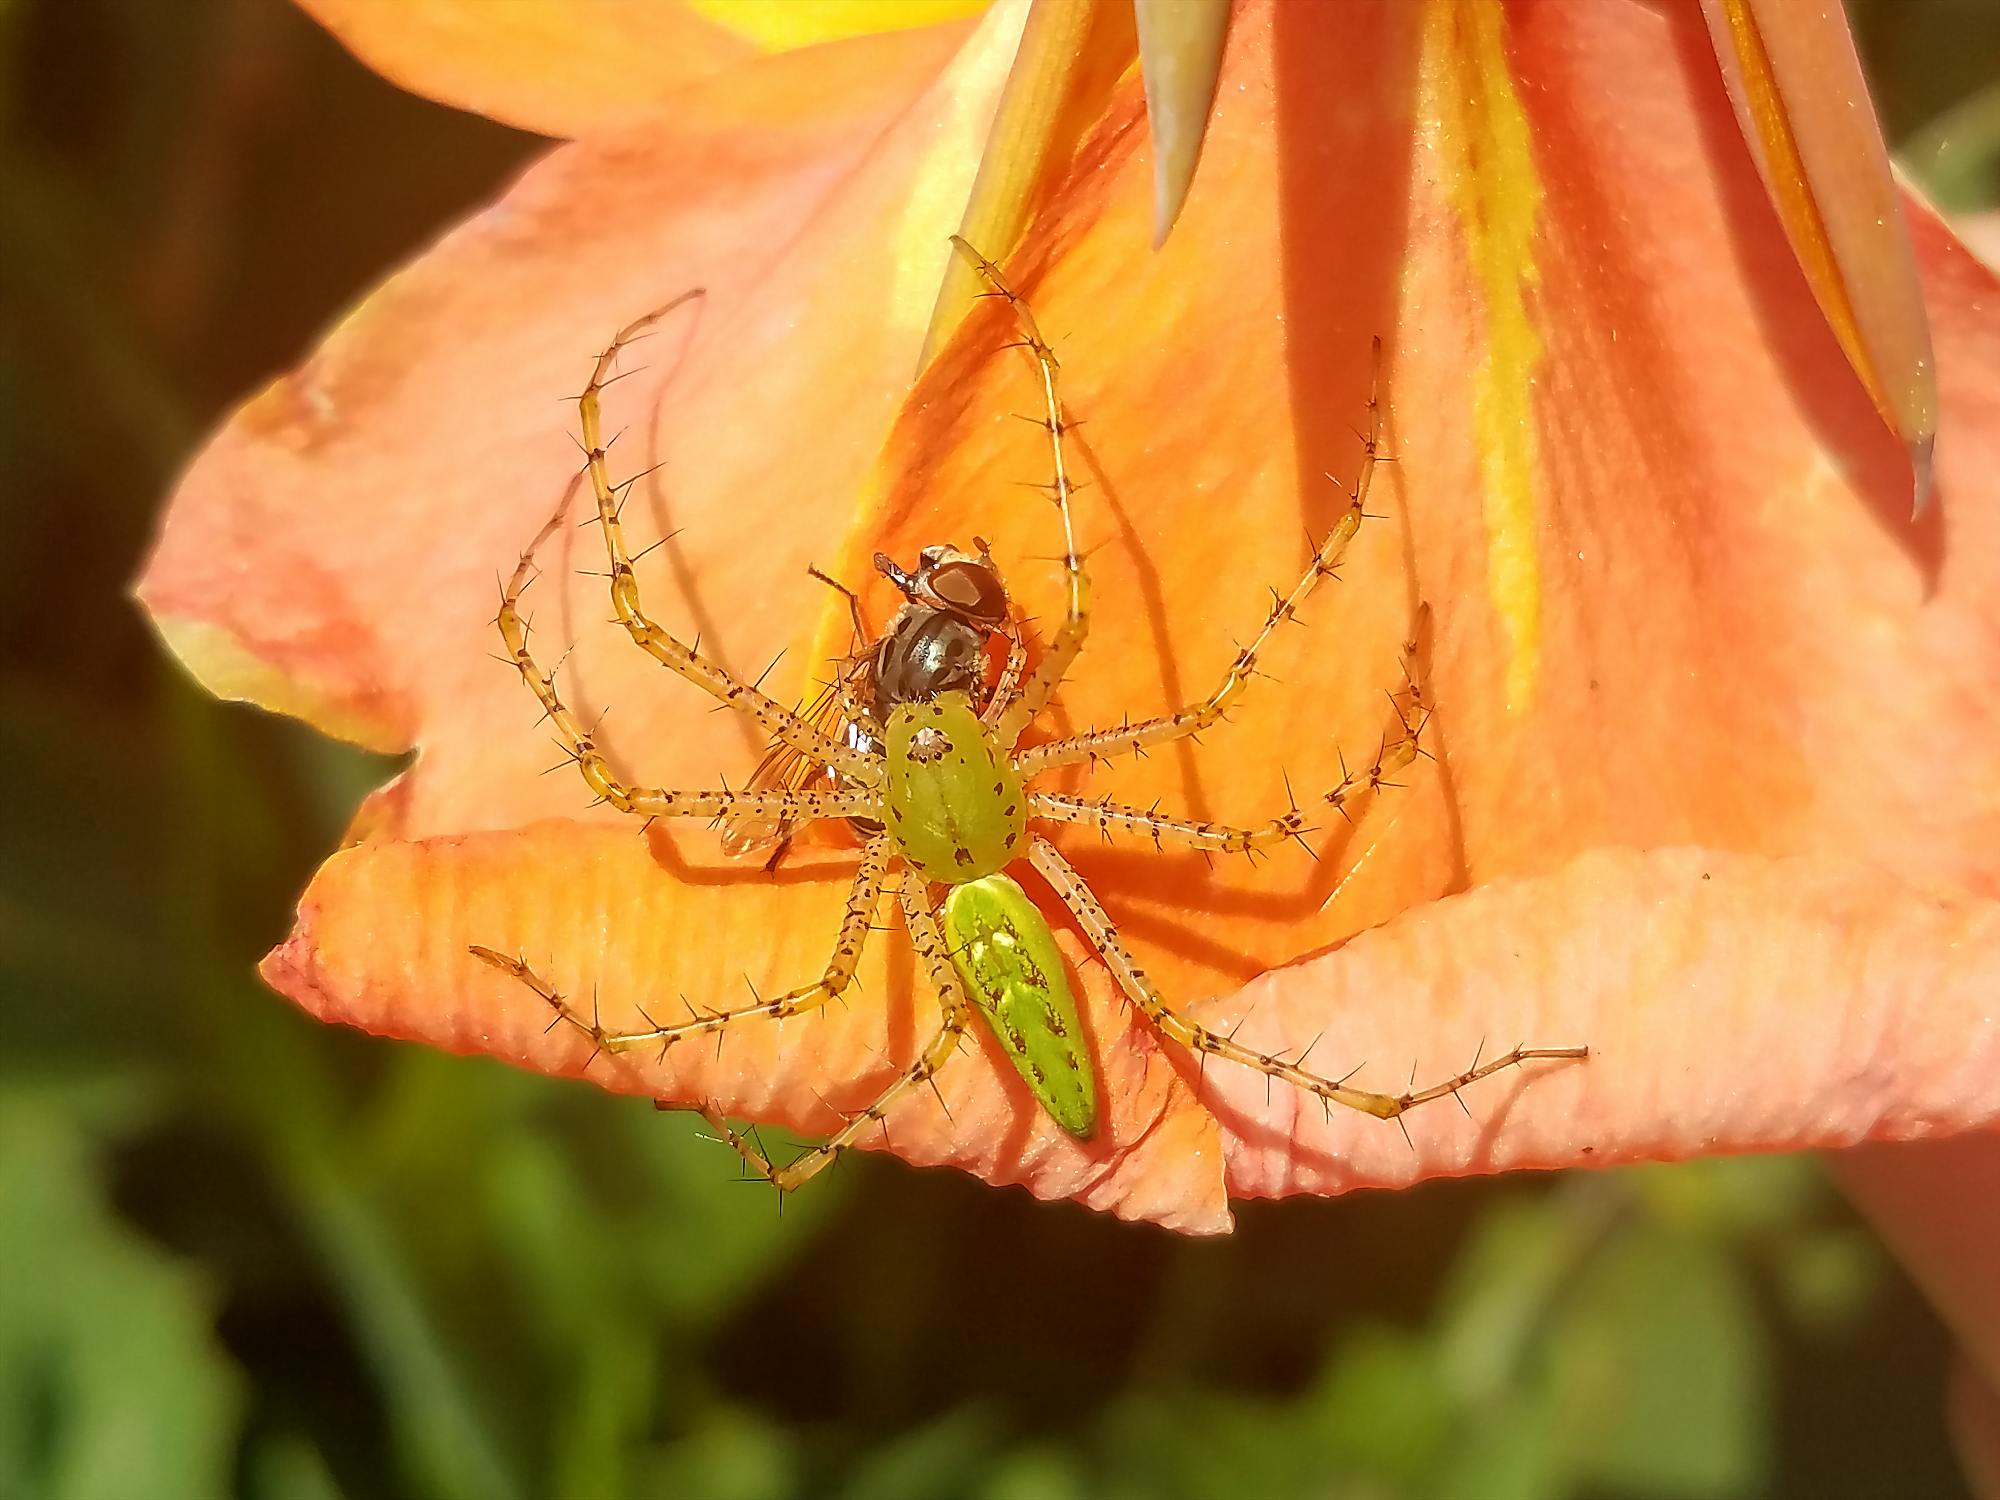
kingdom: Animalia
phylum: Arthropoda
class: Arachnida
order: Araneae
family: Oxyopidae
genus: Peucetia
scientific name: Peucetia viridans
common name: Lynx spiders
